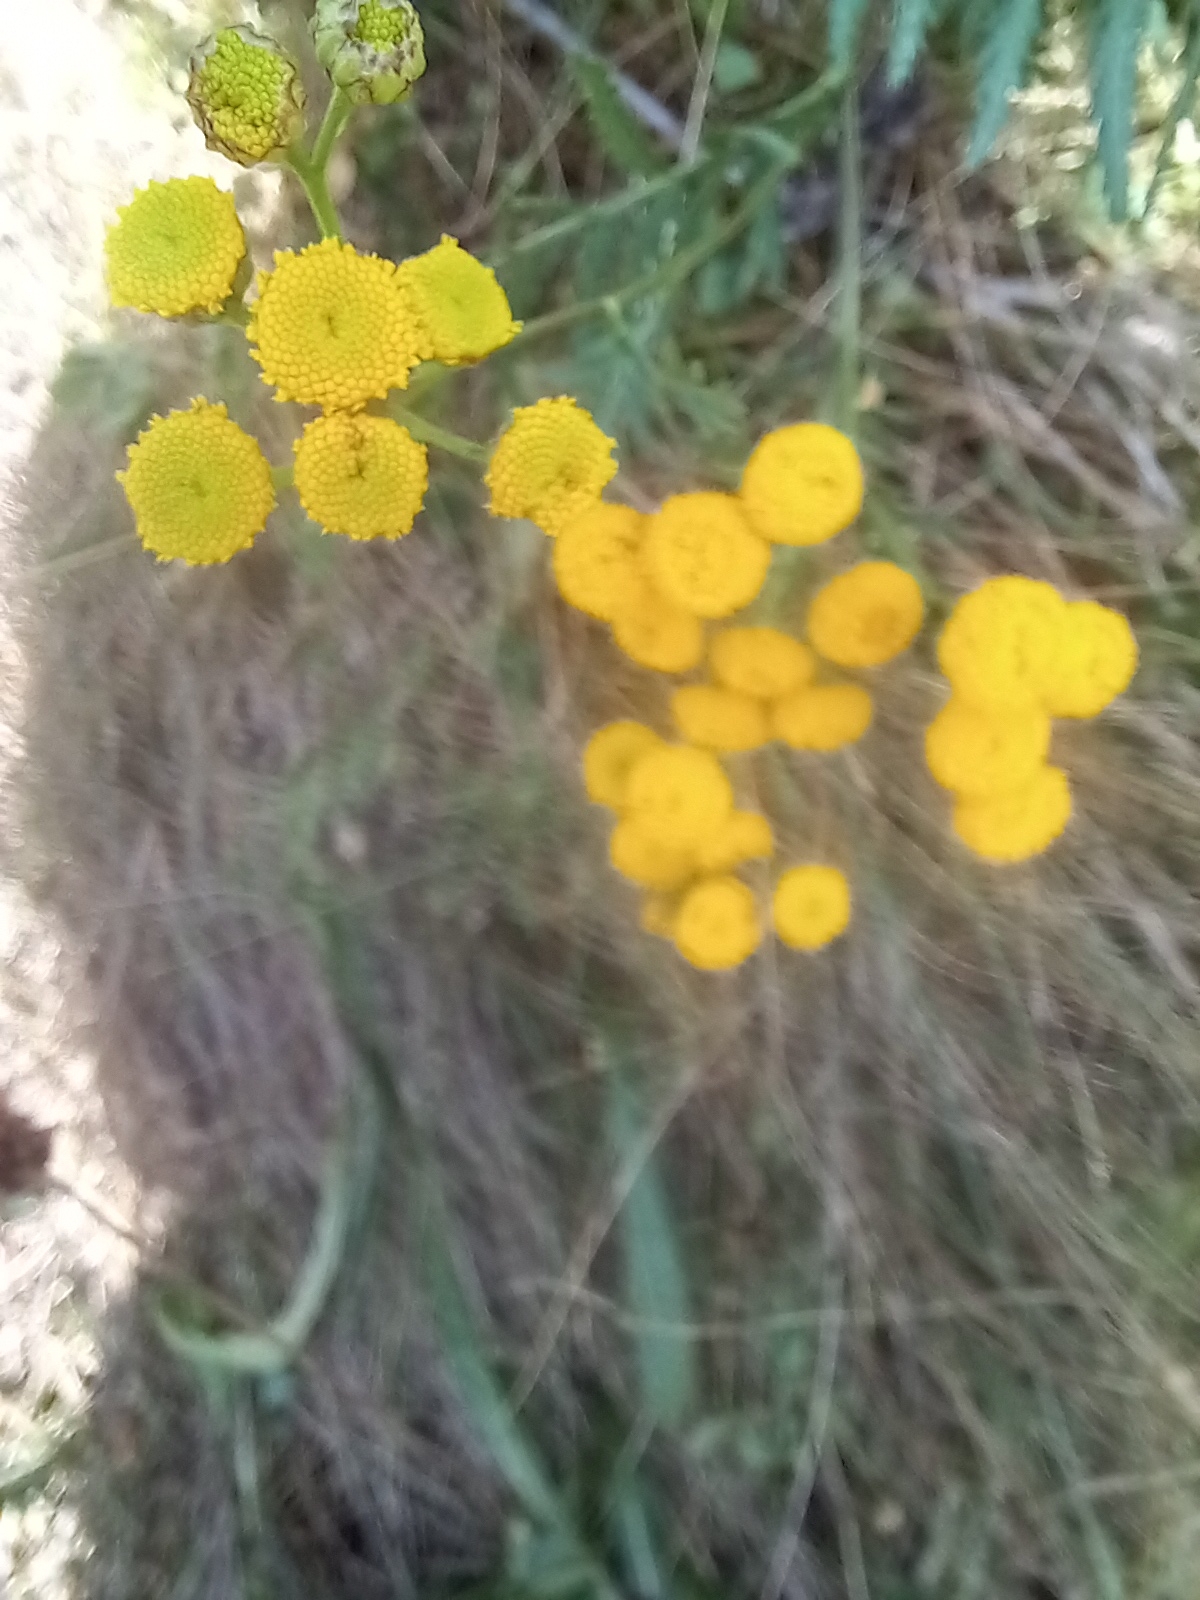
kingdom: Plantae
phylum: Tracheophyta
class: Magnoliopsida
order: Asterales
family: Asteraceae
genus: Tanacetum
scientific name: Tanacetum vulgare
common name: Common tansy
